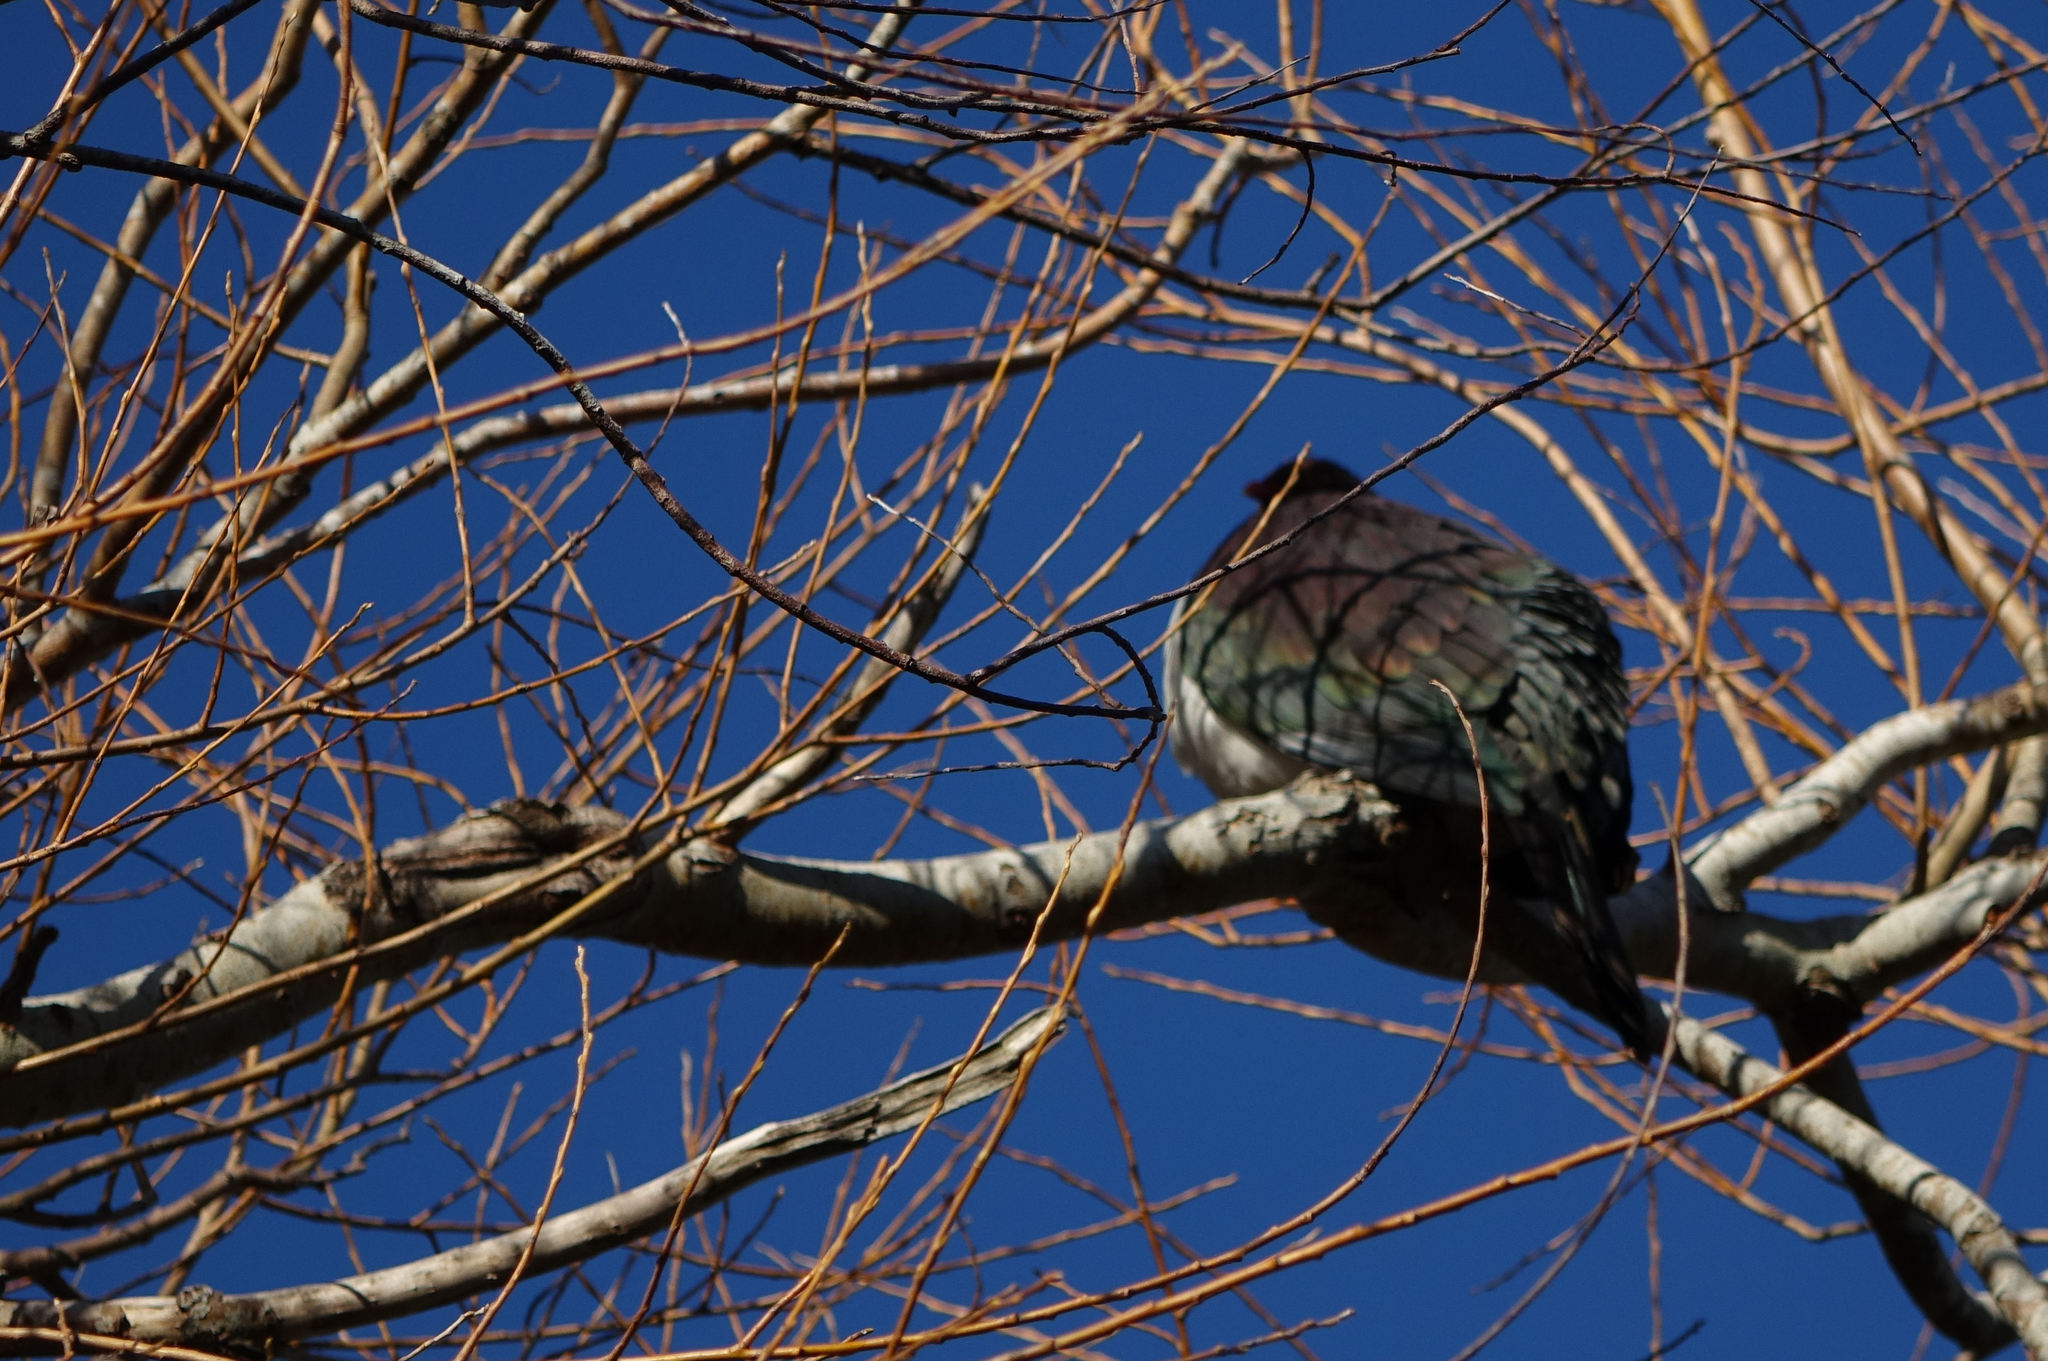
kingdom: Animalia
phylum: Chordata
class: Aves
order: Columbiformes
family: Columbidae
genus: Hemiphaga
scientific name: Hemiphaga novaeseelandiae
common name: New zealand pigeon
